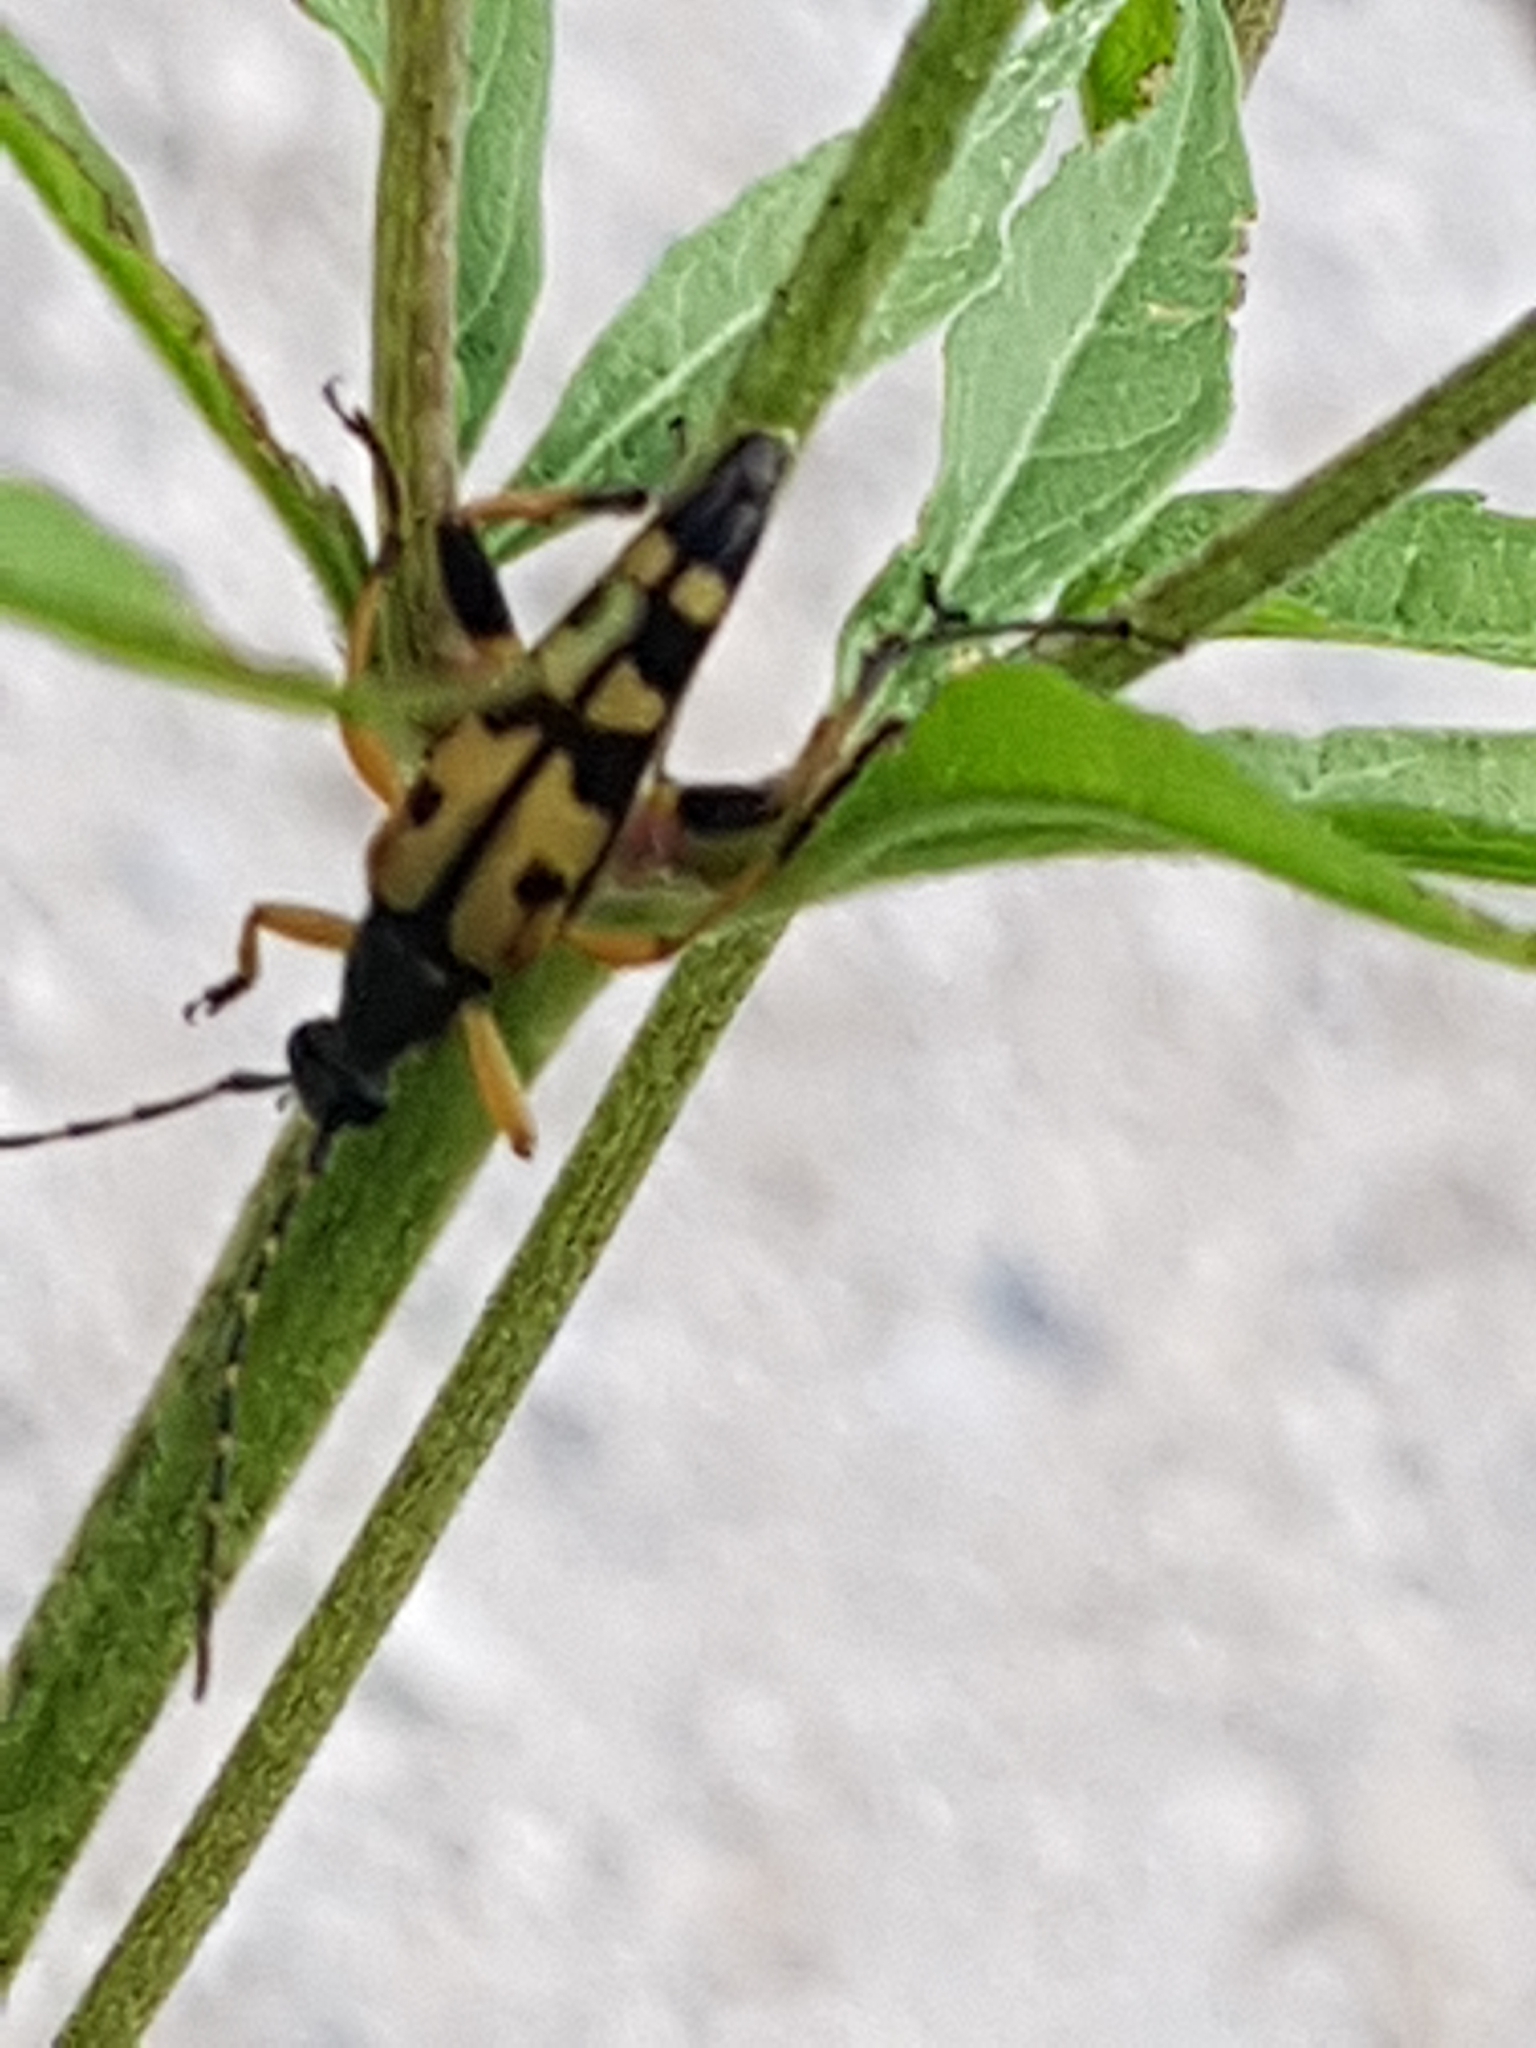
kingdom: Animalia
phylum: Arthropoda
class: Insecta
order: Coleoptera
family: Cerambycidae
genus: Rutpela
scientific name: Rutpela maculata
